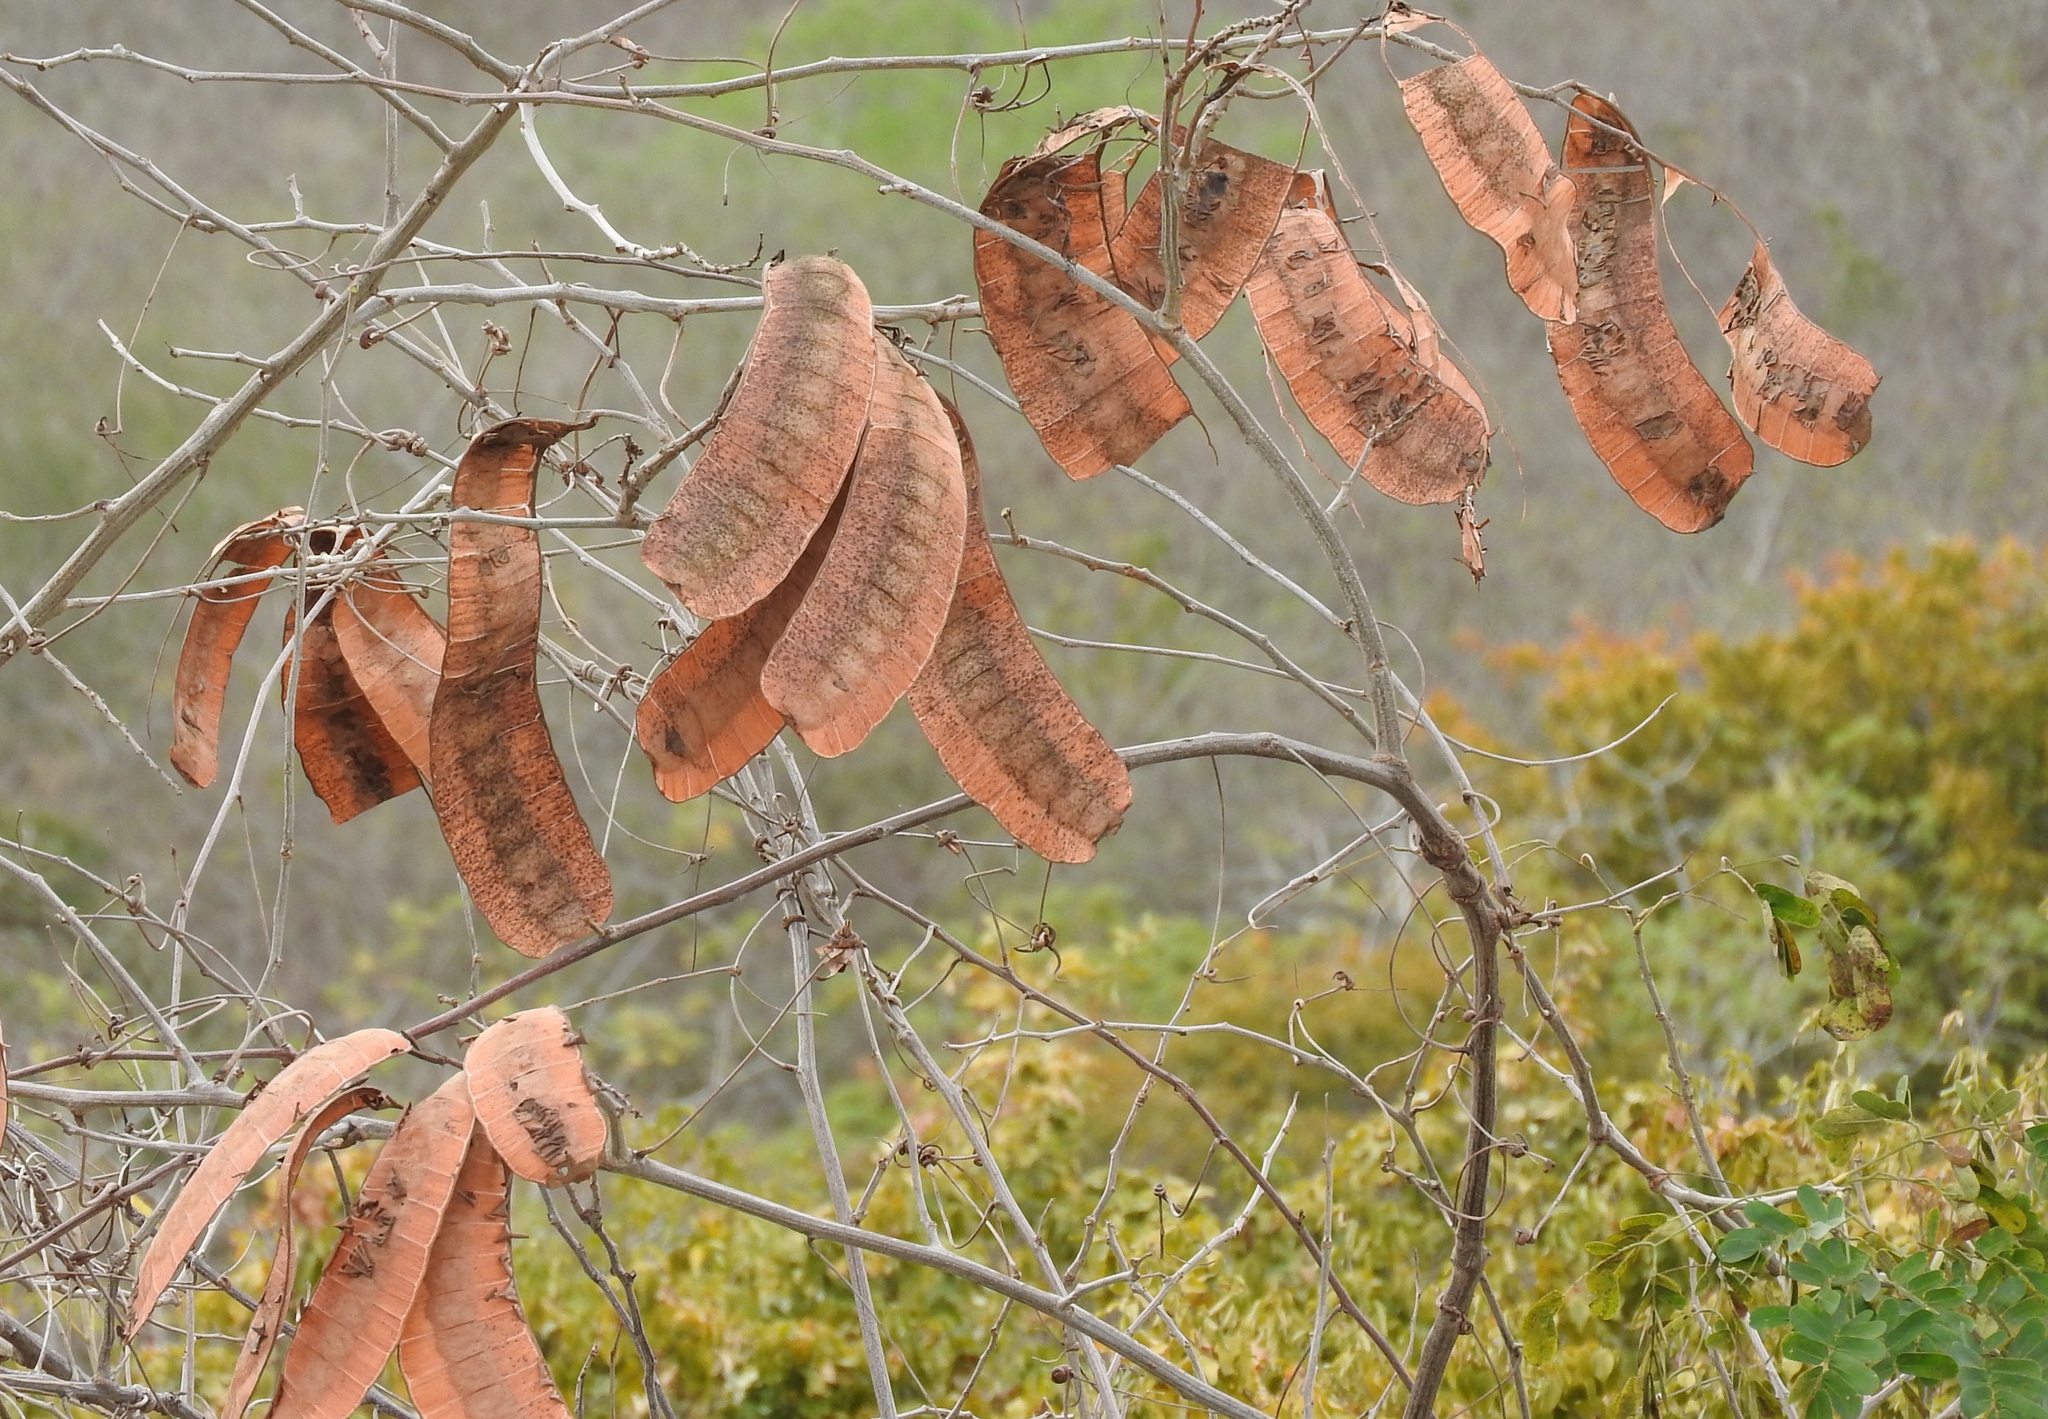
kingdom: Plantae
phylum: Tracheophyta
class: Magnoliopsida
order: Fabales
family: Fabaceae
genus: Entada
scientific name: Entada polystachya
